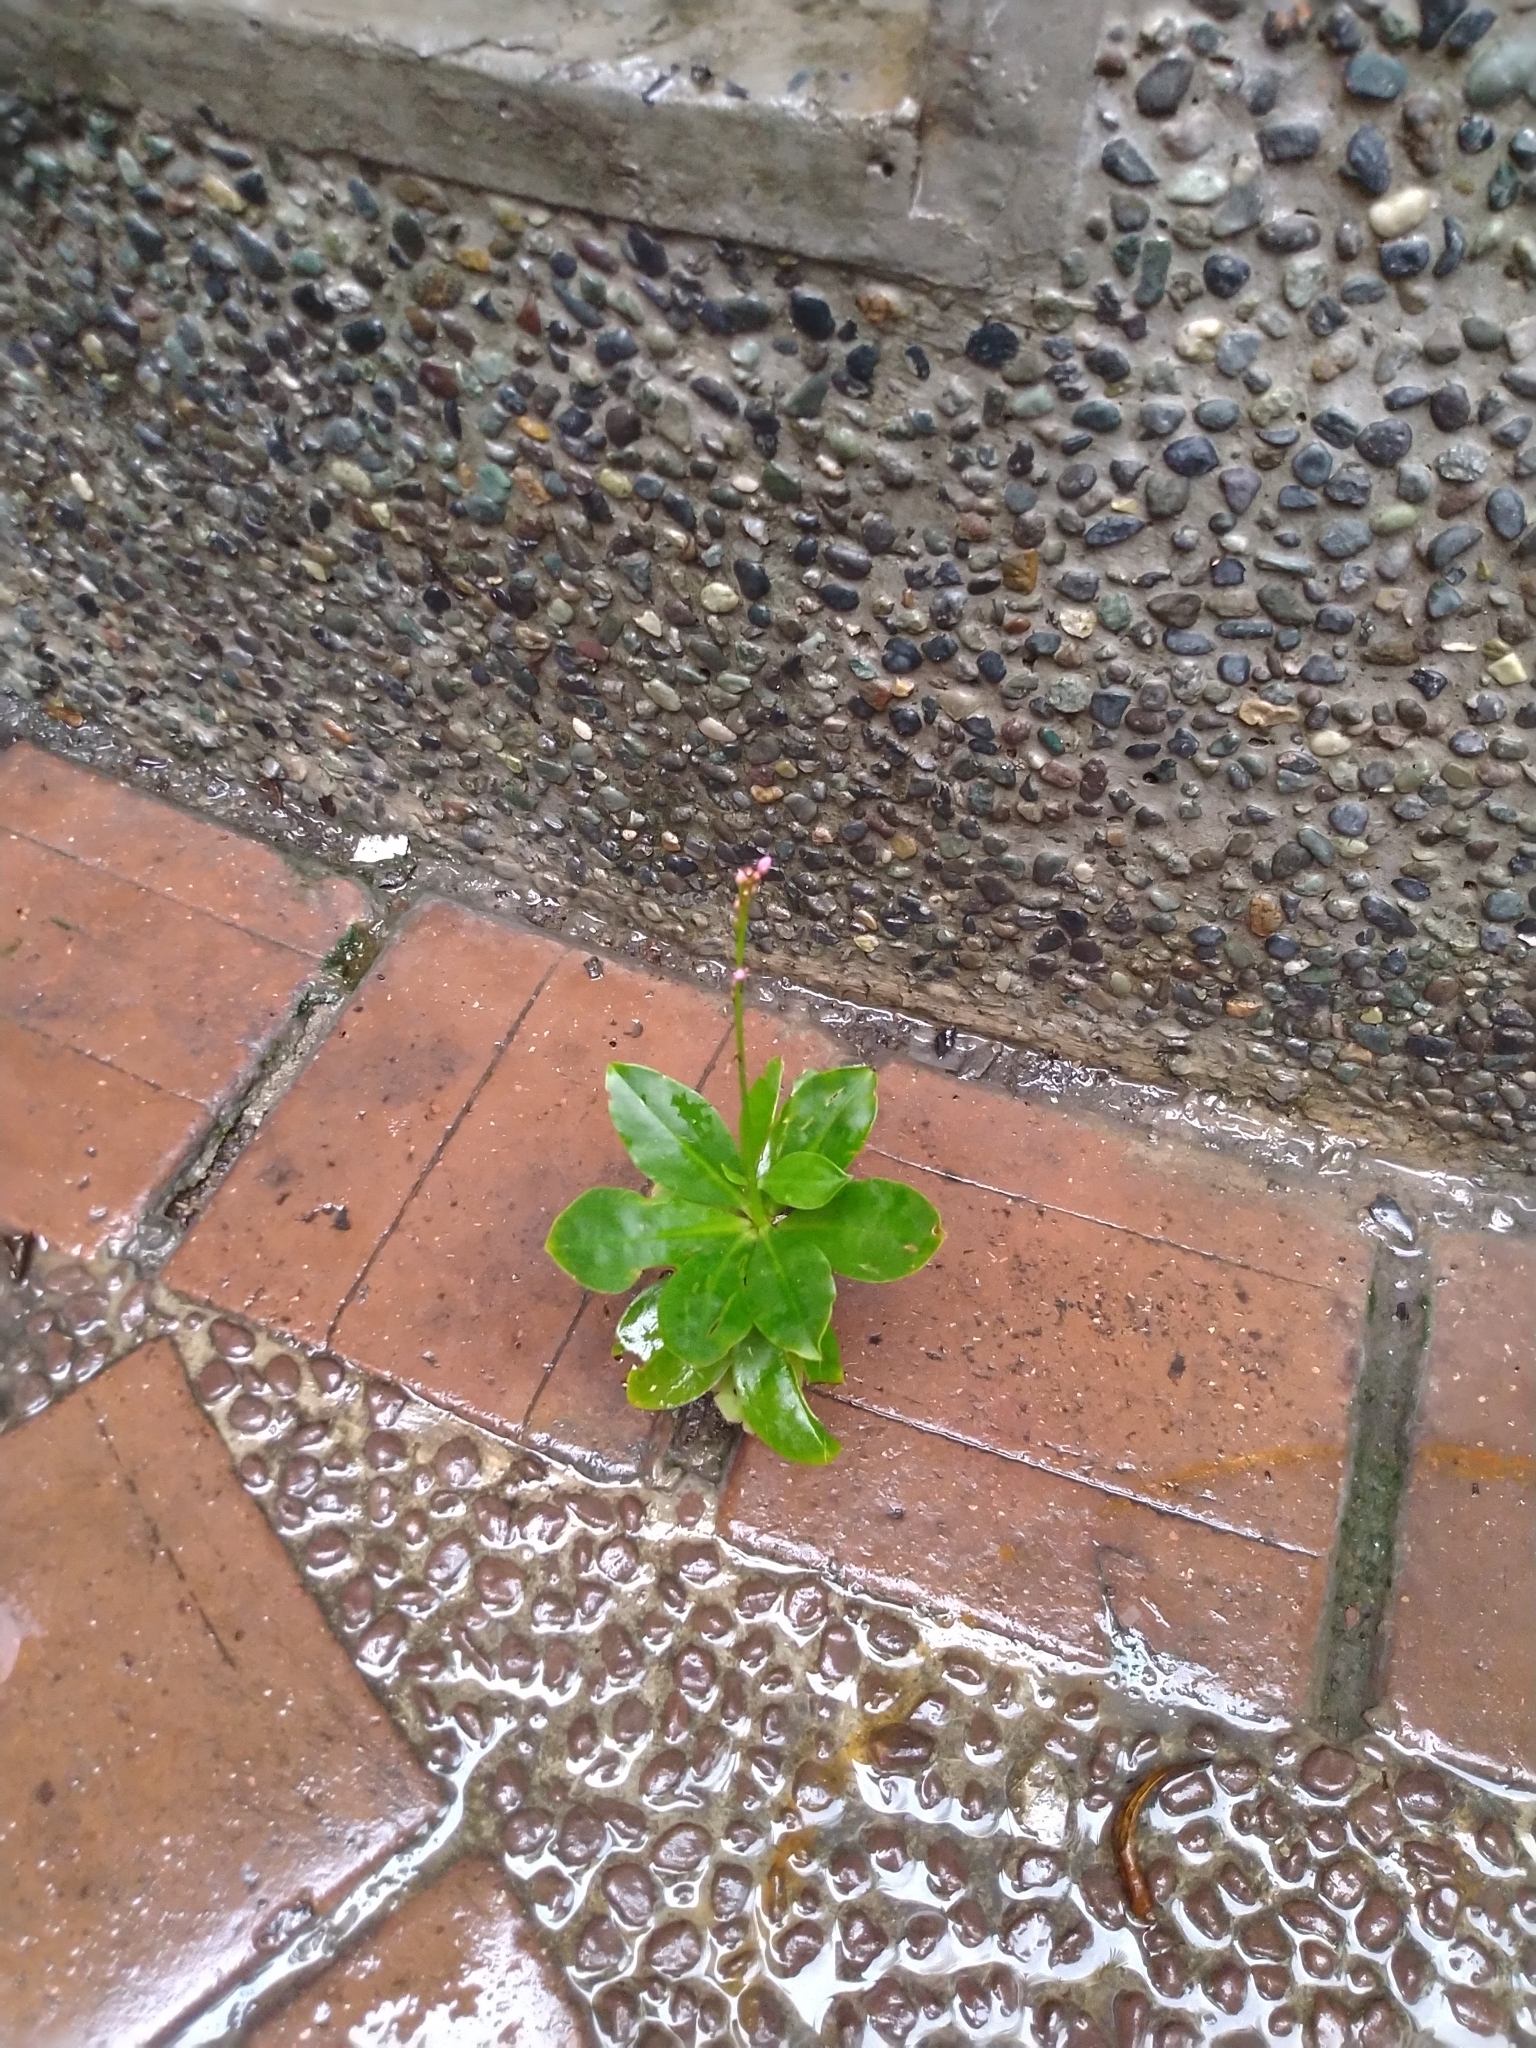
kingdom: Plantae
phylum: Tracheophyta
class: Magnoliopsida
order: Caryophyllales
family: Talinaceae
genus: Talinum
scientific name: Talinum paniculatum
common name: Jewels of opar
